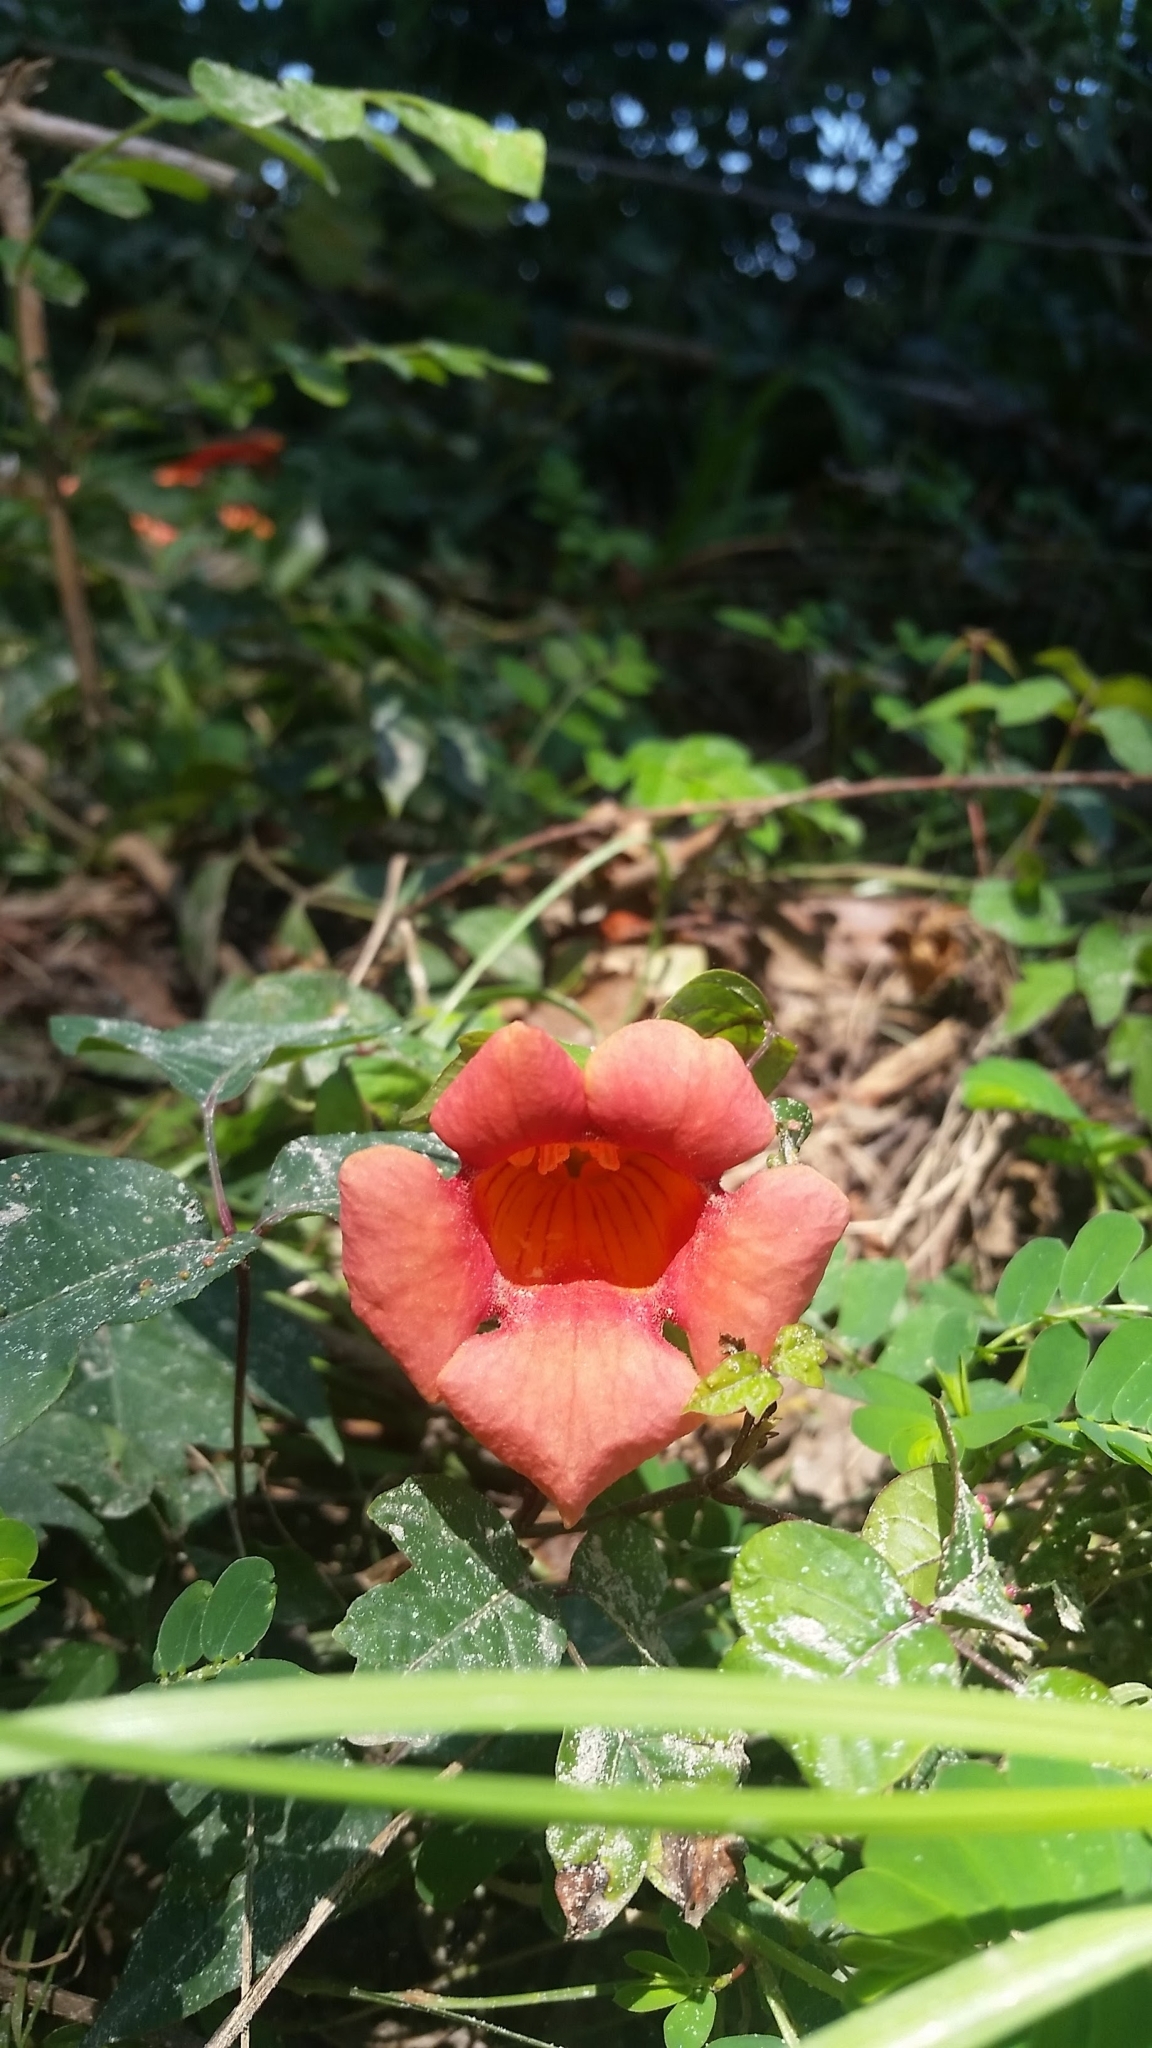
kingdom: Plantae
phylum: Tracheophyta
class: Magnoliopsida
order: Lamiales
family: Bignoniaceae
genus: Campsis
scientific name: Campsis radicans
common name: Trumpet-creeper
